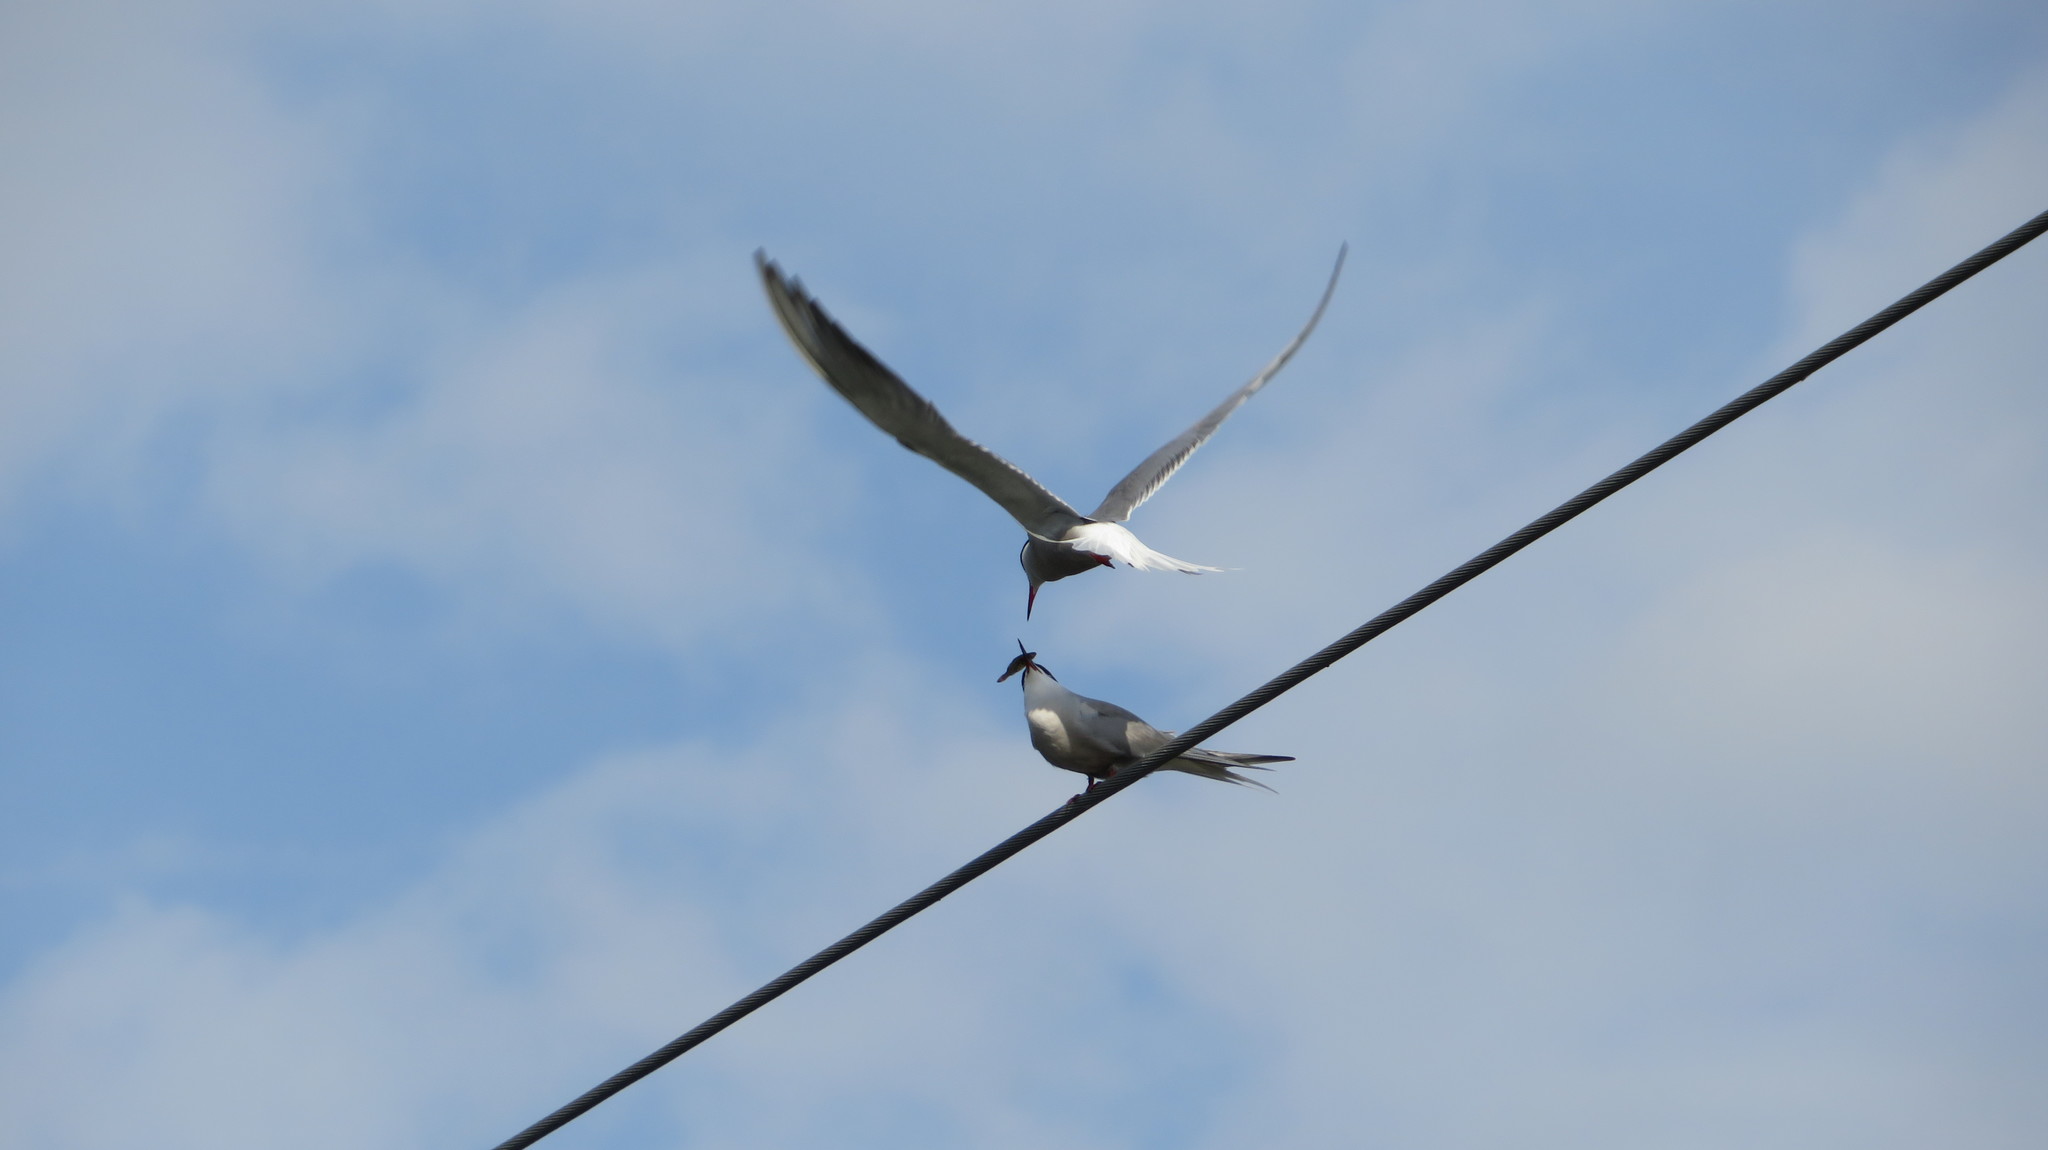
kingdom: Animalia
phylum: Chordata
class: Aves
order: Charadriiformes
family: Laridae
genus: Sterna
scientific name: Sterna hirundo
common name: Common tern
